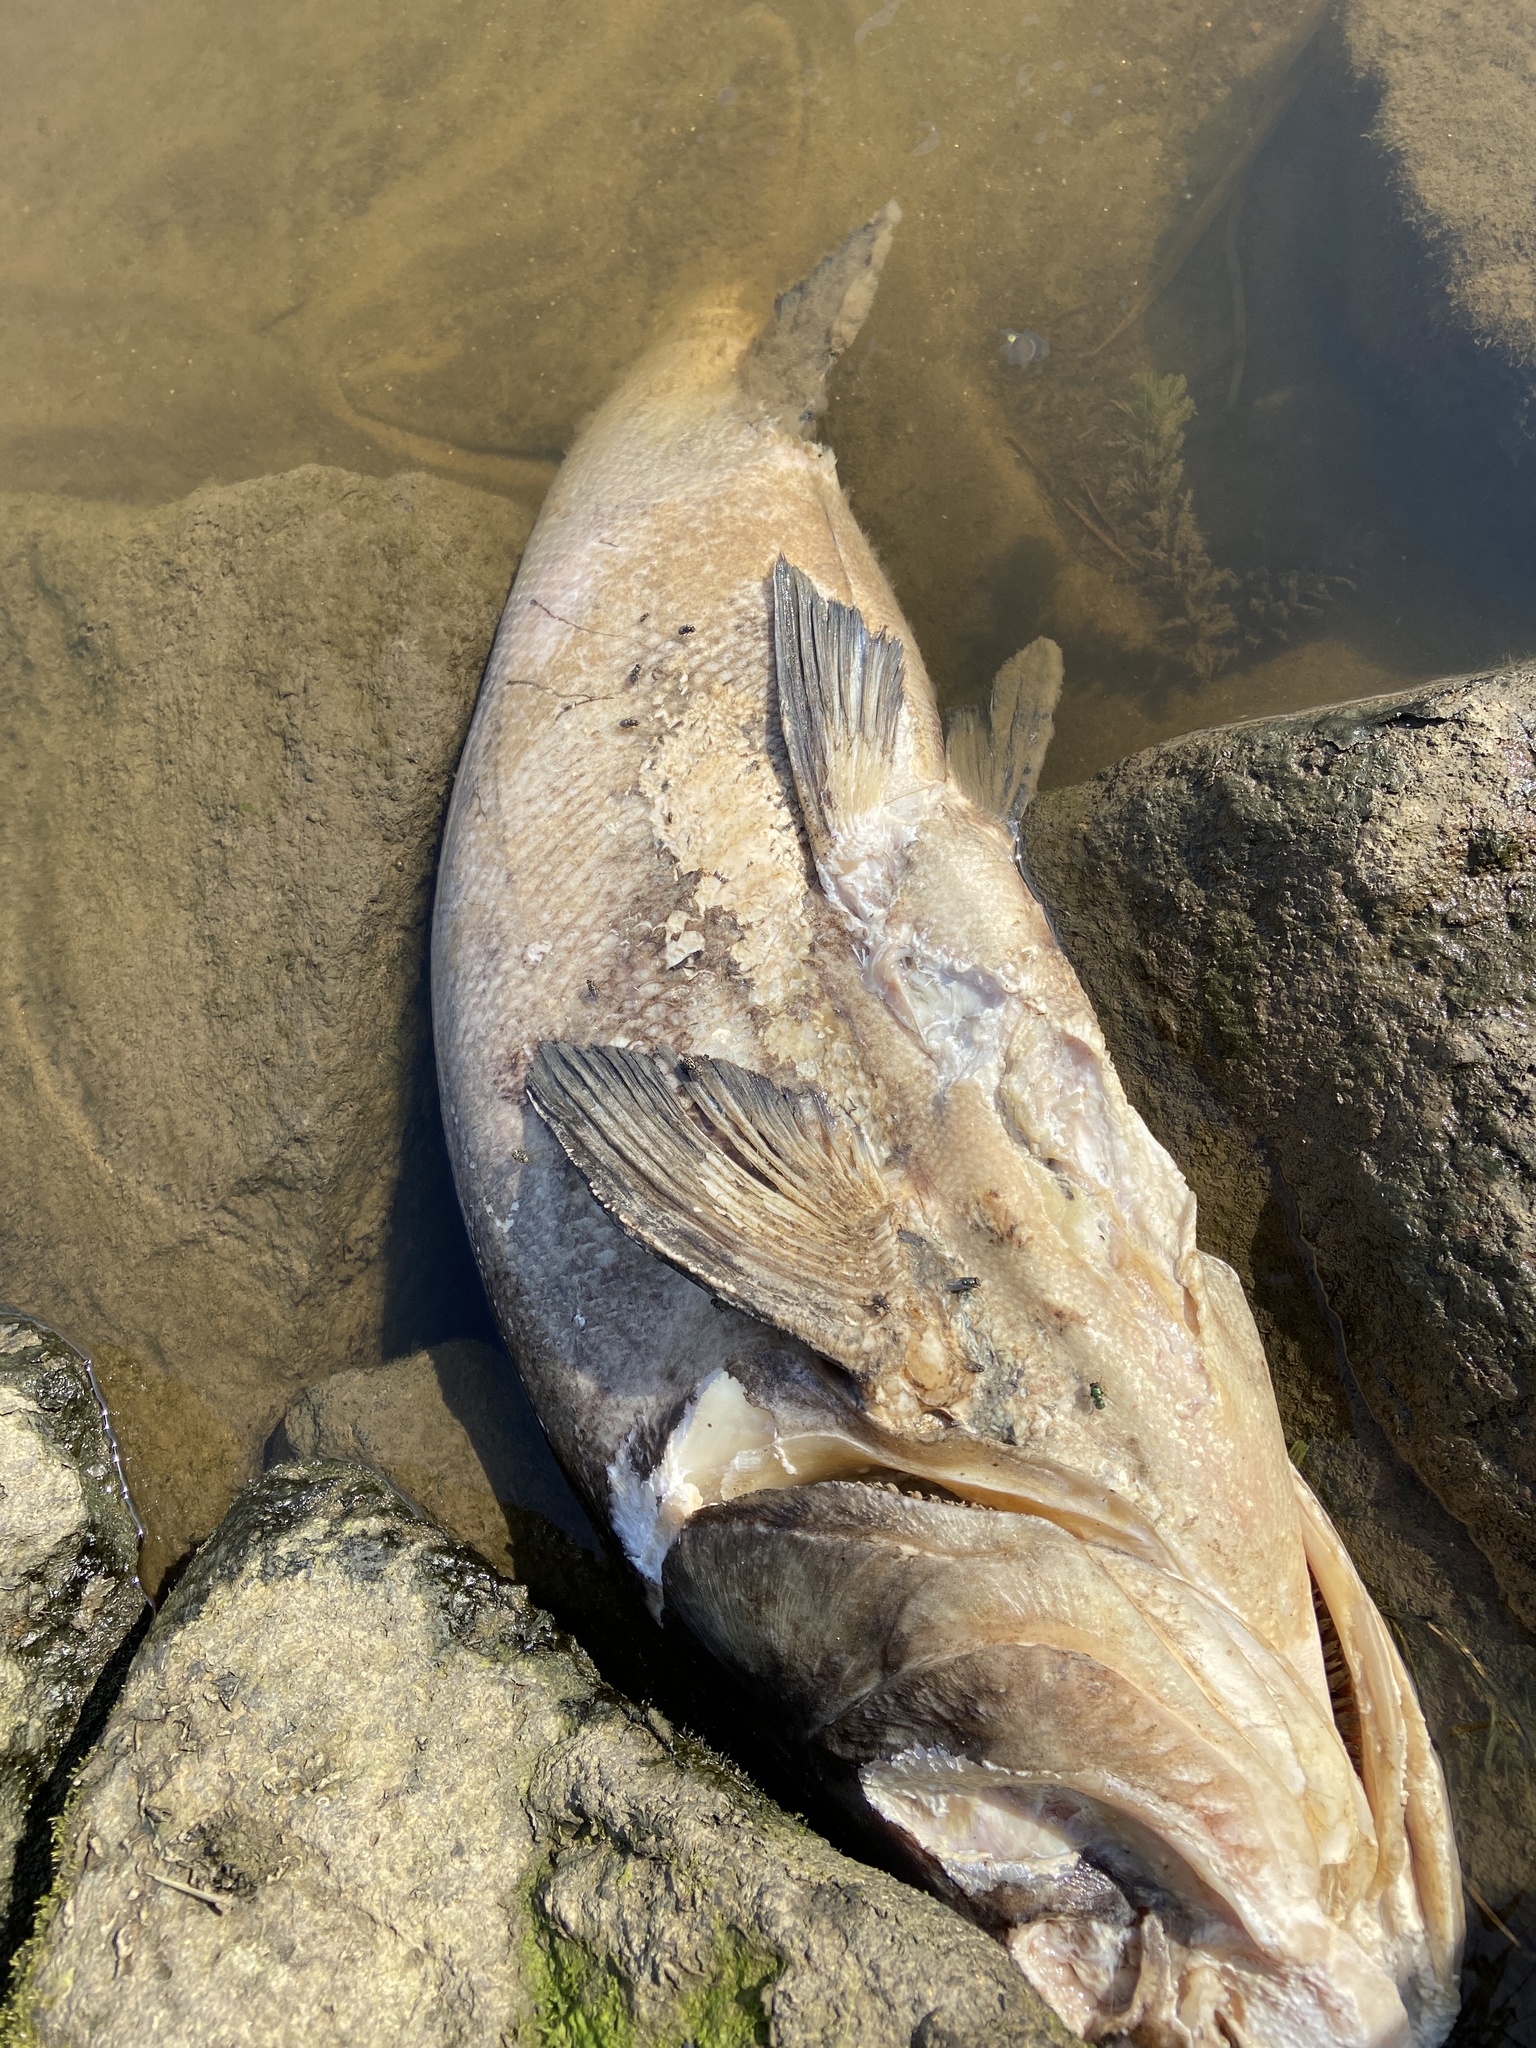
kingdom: Animalia
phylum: Chordata
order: Cypriniformes
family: Cyprinidae
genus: Hypophthalmichthys
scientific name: Hypophthalmichthys molitrix
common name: Silver carp
